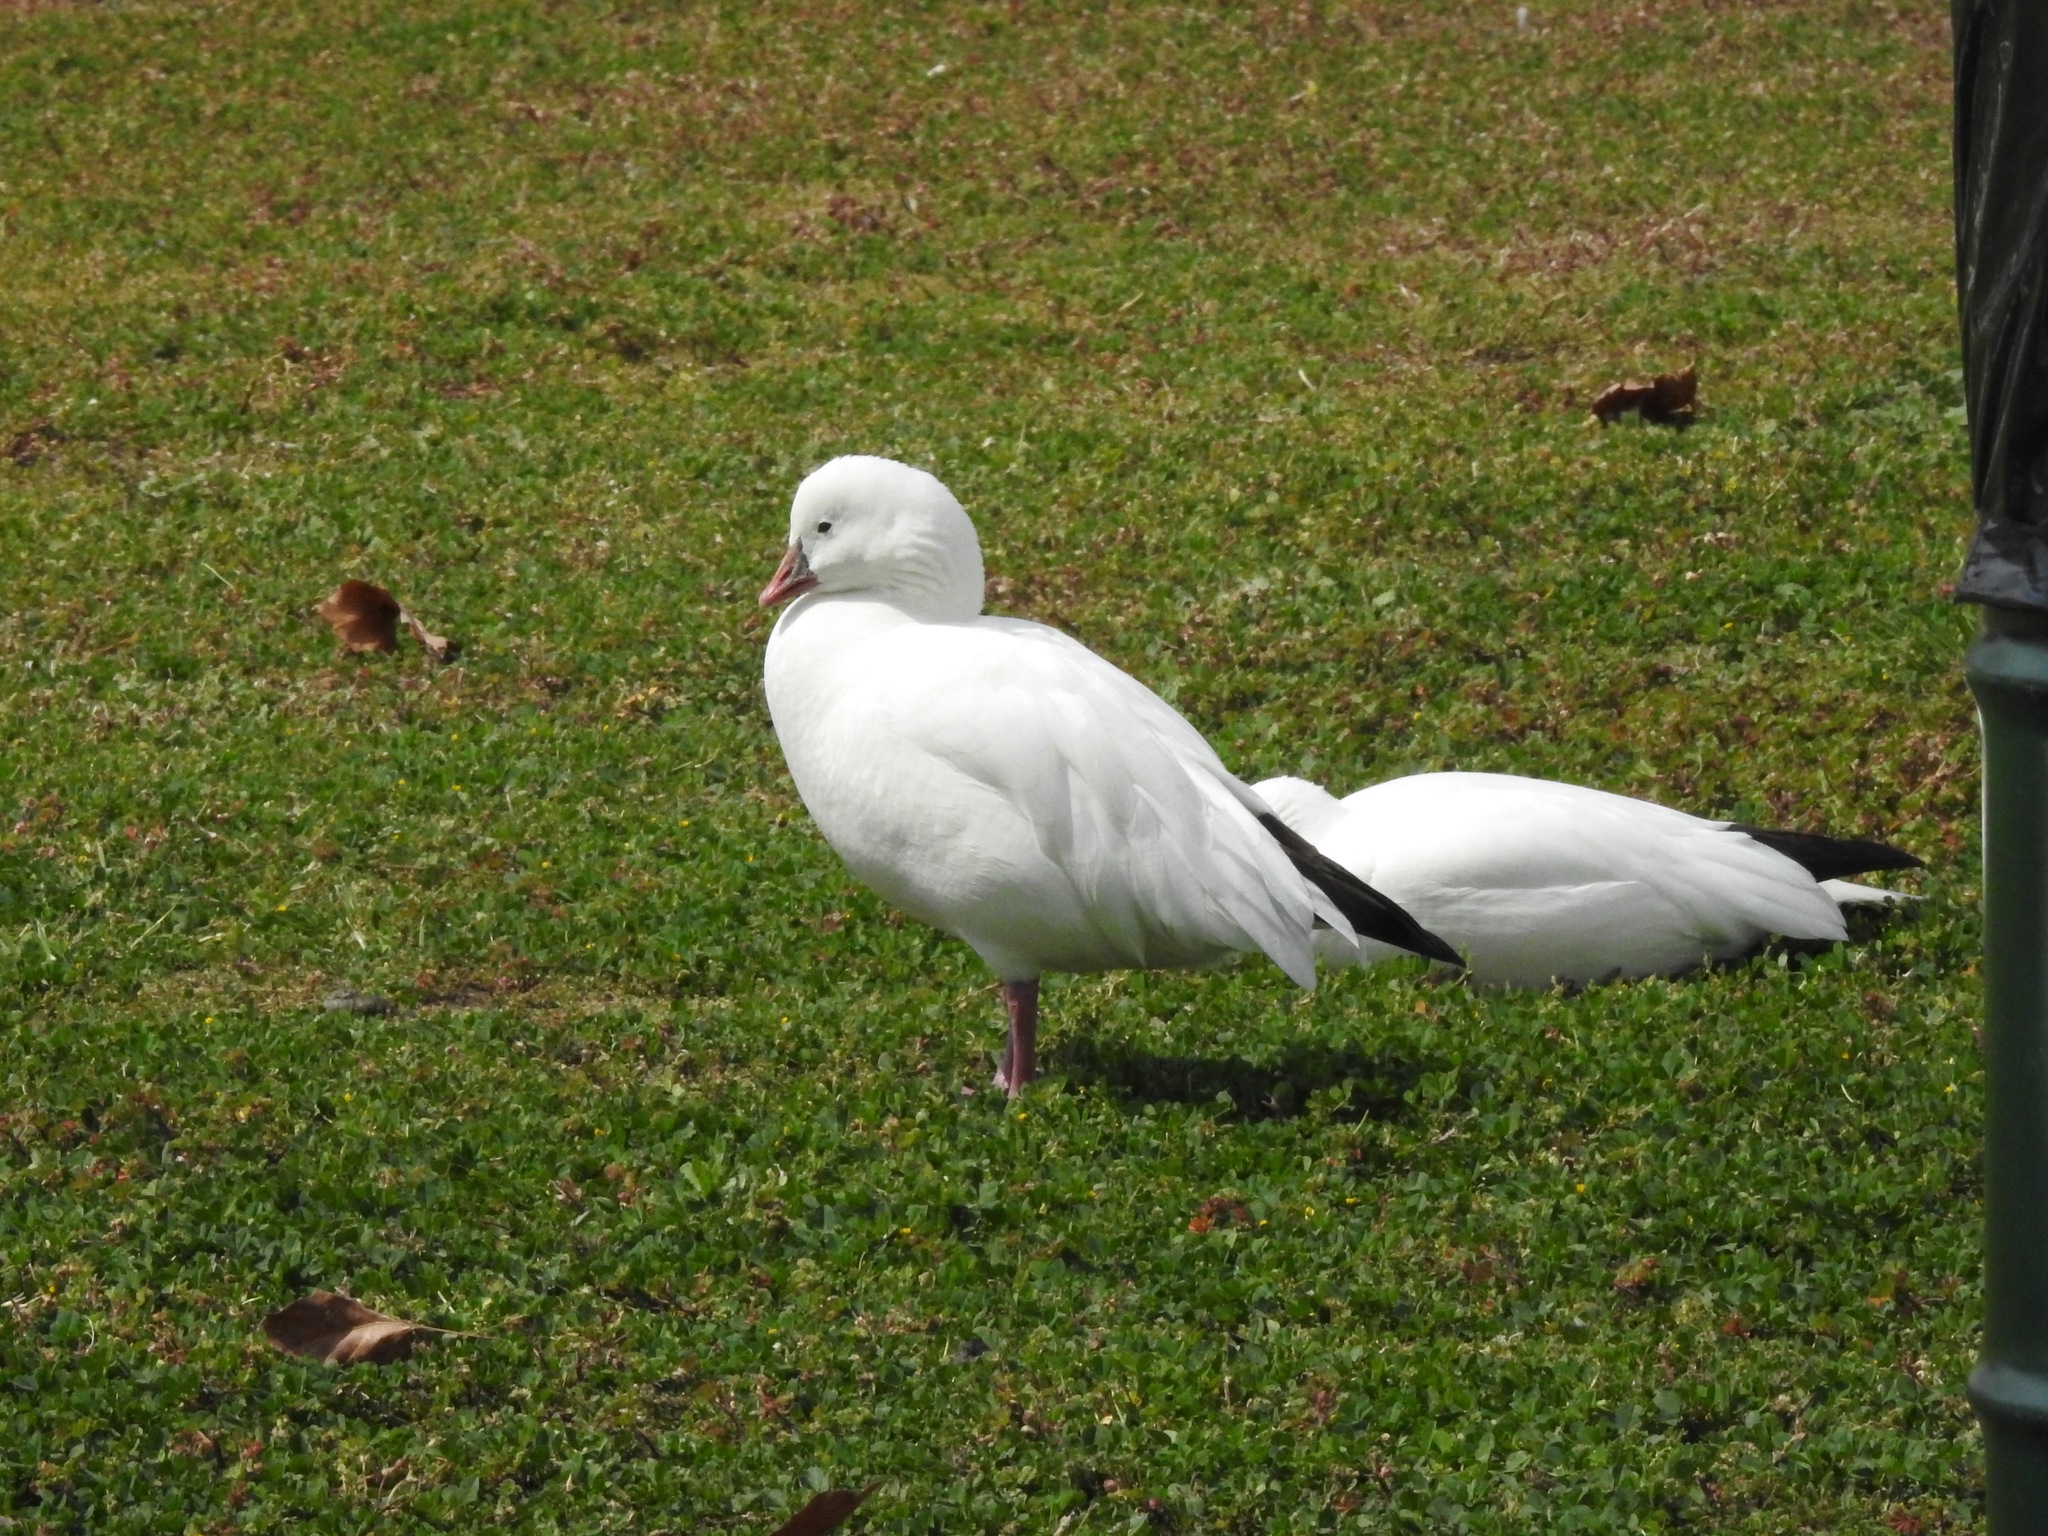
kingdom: Animalia
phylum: Chordata
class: Aves
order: Anseriformes
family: Anatidae
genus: Anser
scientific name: Anser rossii
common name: Ross's goose
